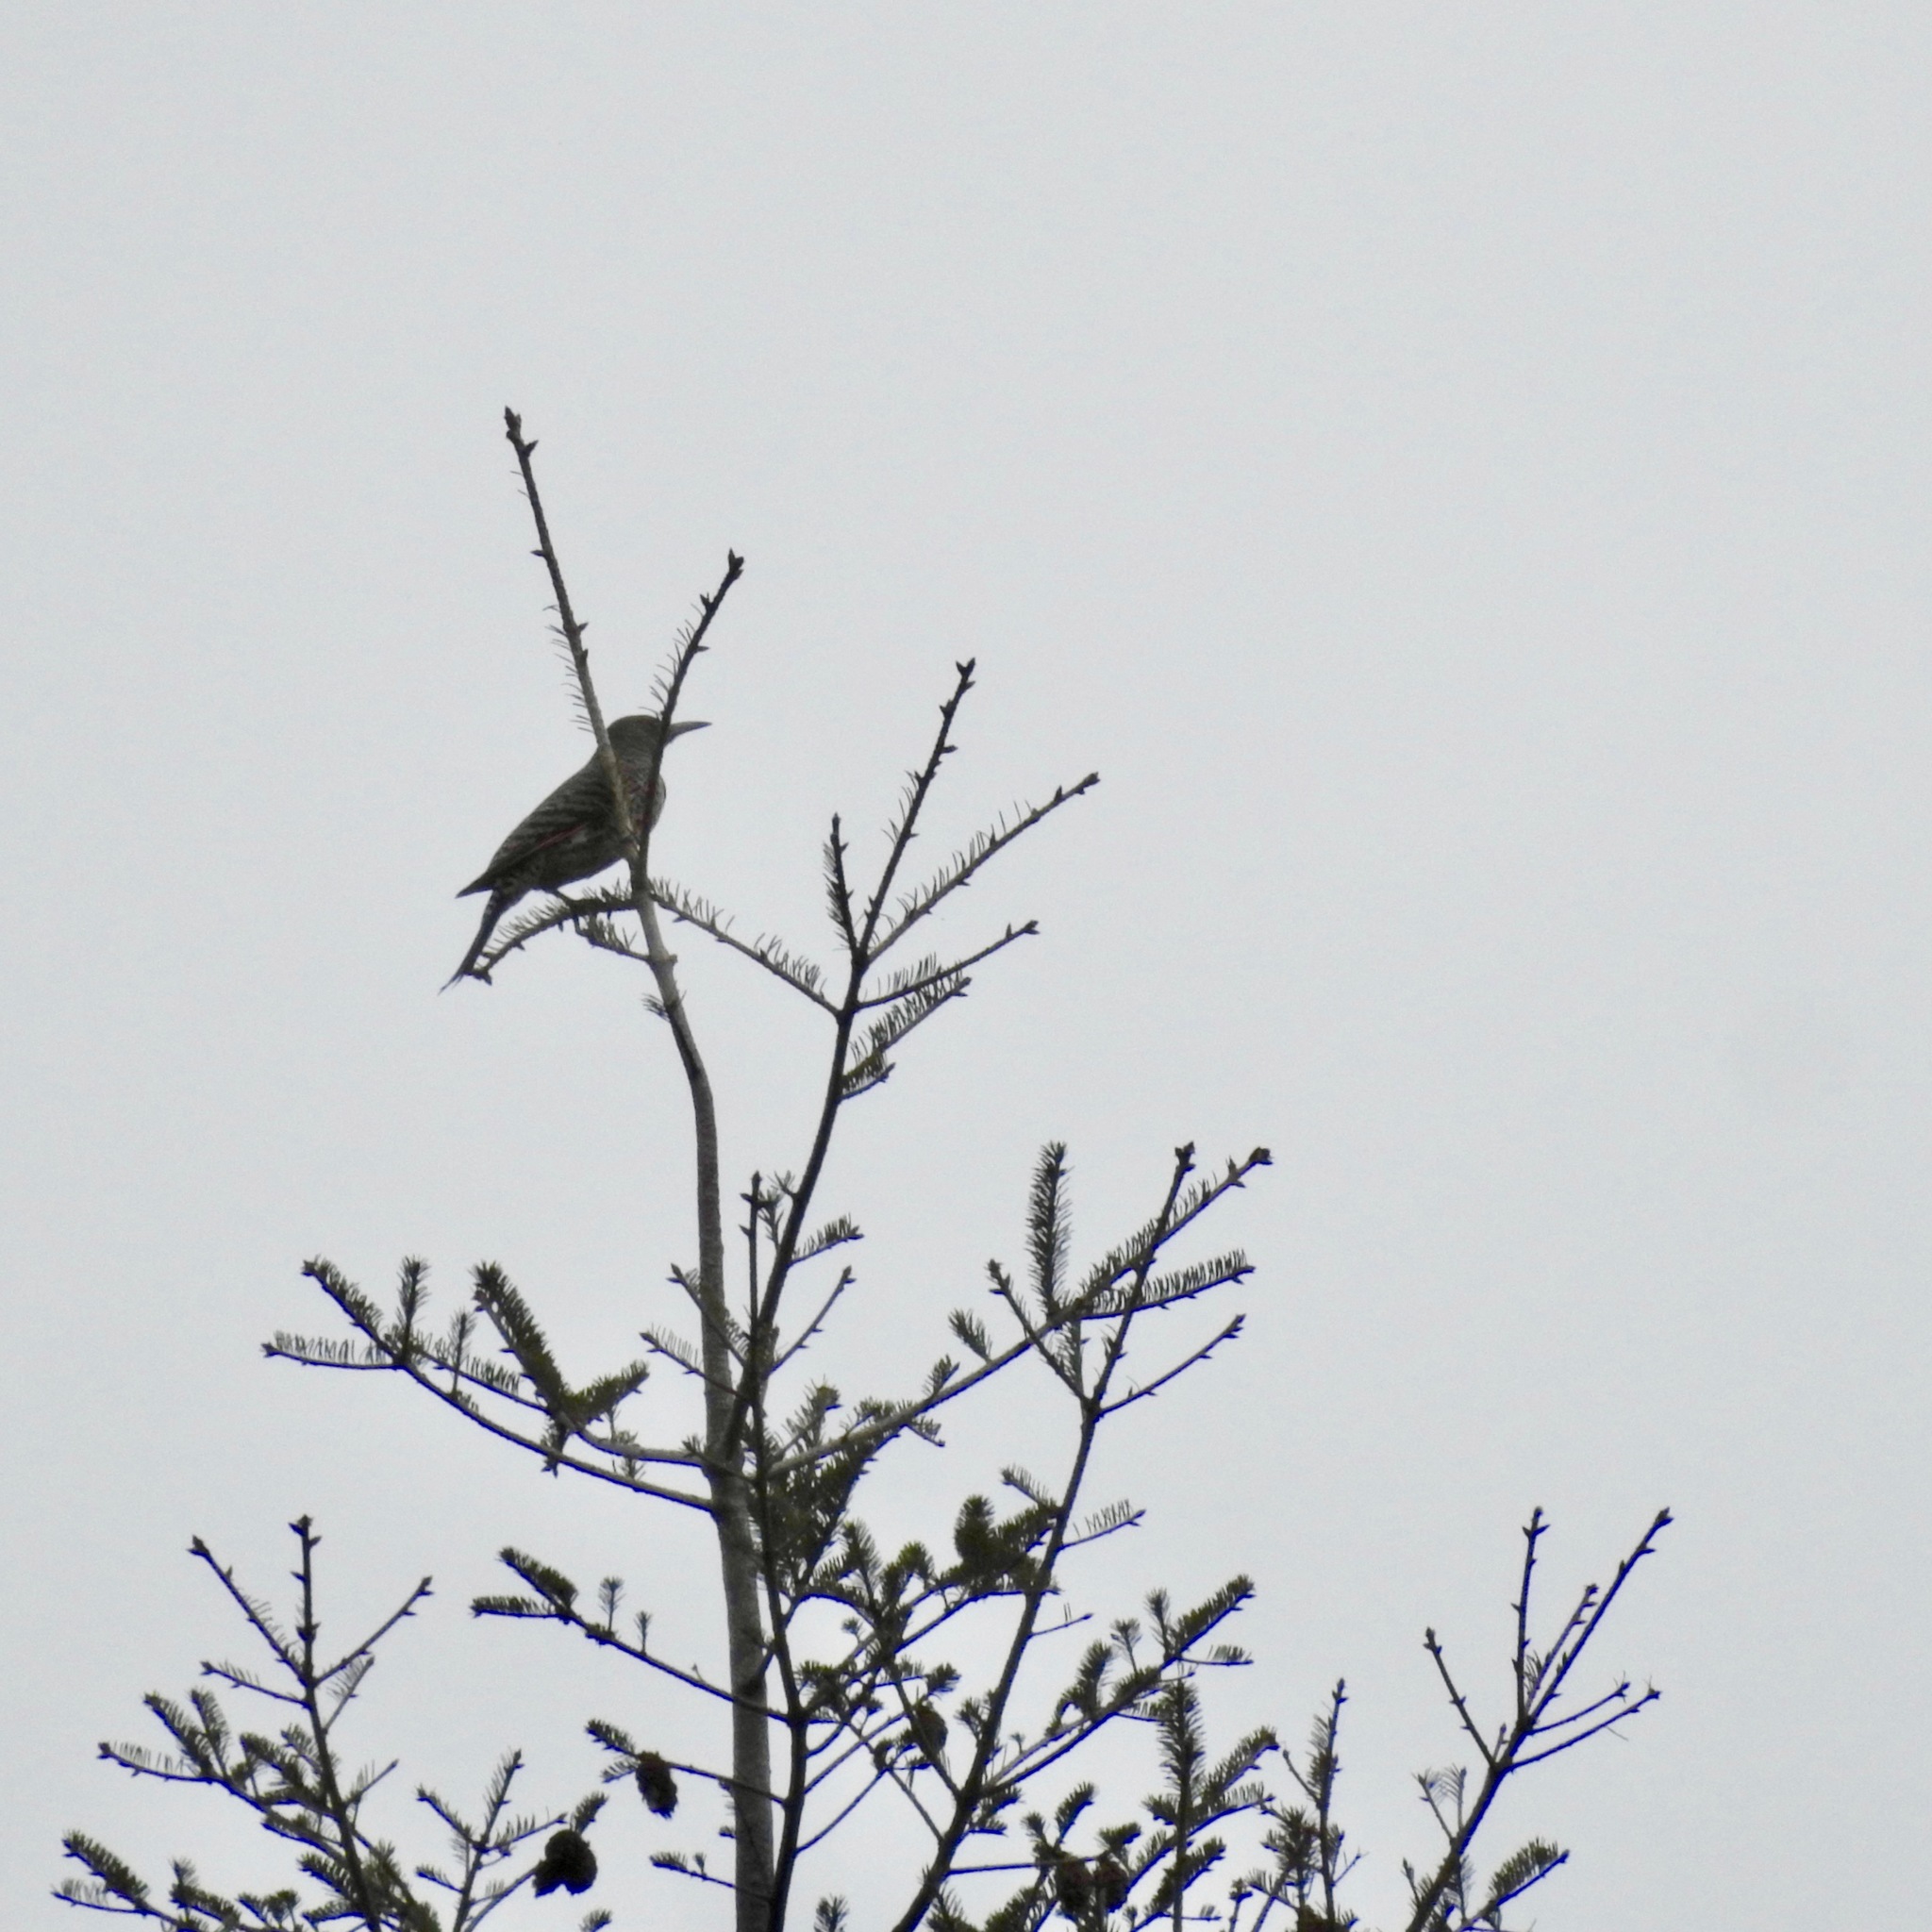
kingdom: Animalia
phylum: Chordata
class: Aves
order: Piciformes
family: Picidae
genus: Colaptes
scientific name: Colaptes auratus
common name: Northern flicker
